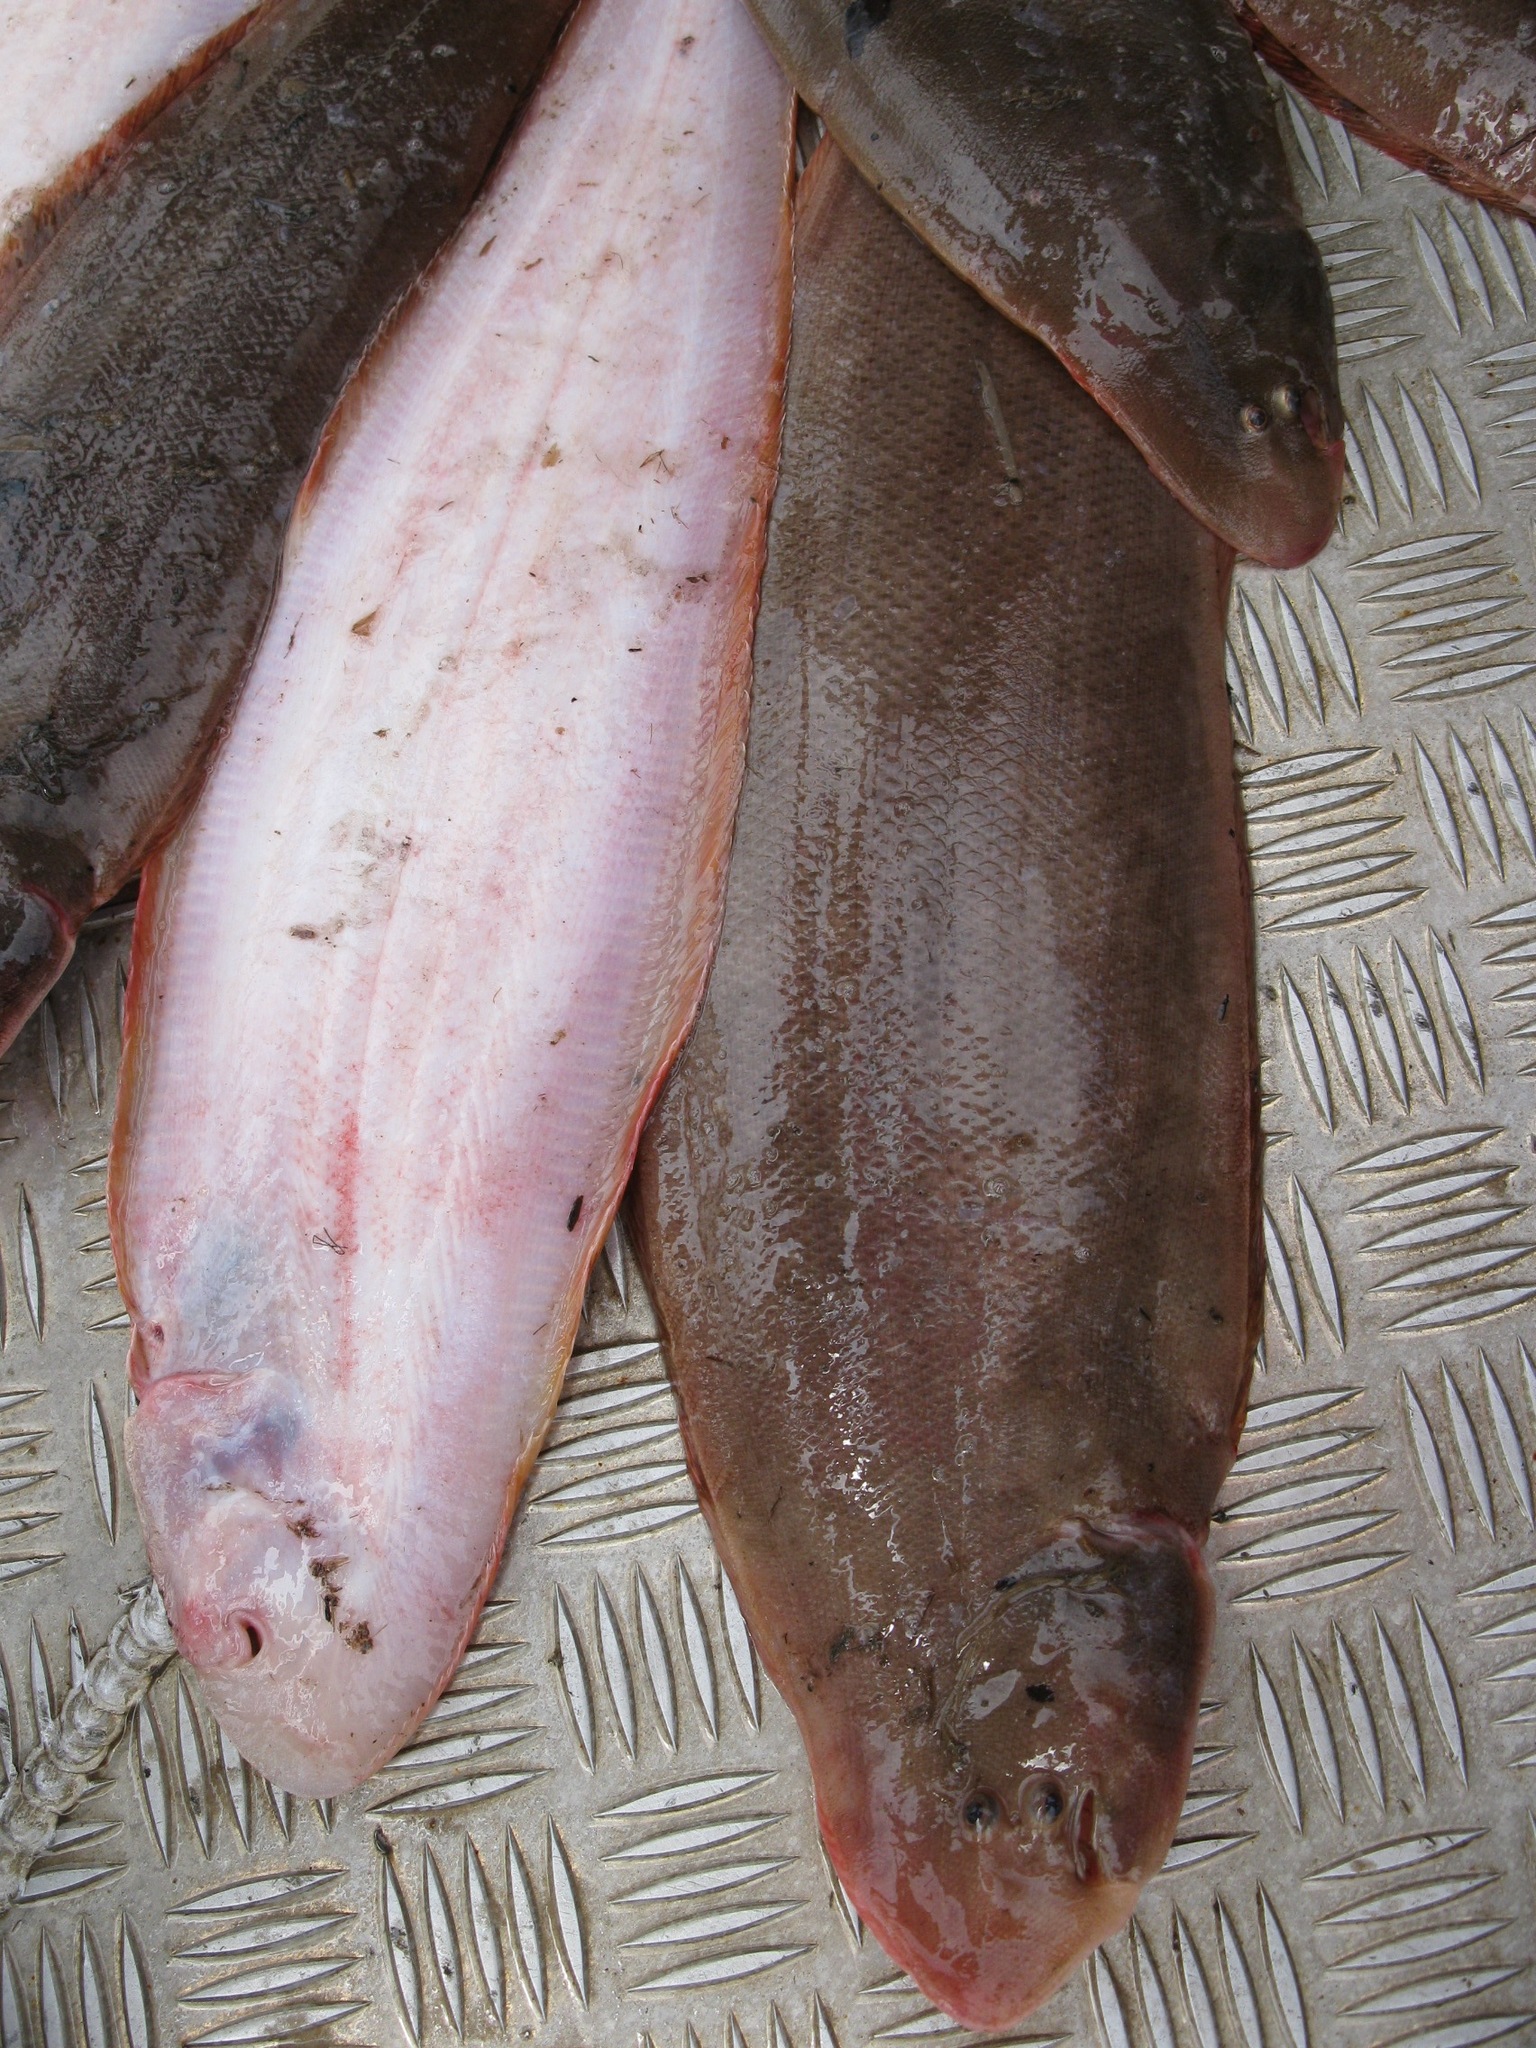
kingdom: Animalia
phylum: Chordata
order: Pleuronectiformes
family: Cynoglossidae
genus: Cynoglossus
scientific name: Cynoglossus senegalensis
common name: Senegalese tonguesole
